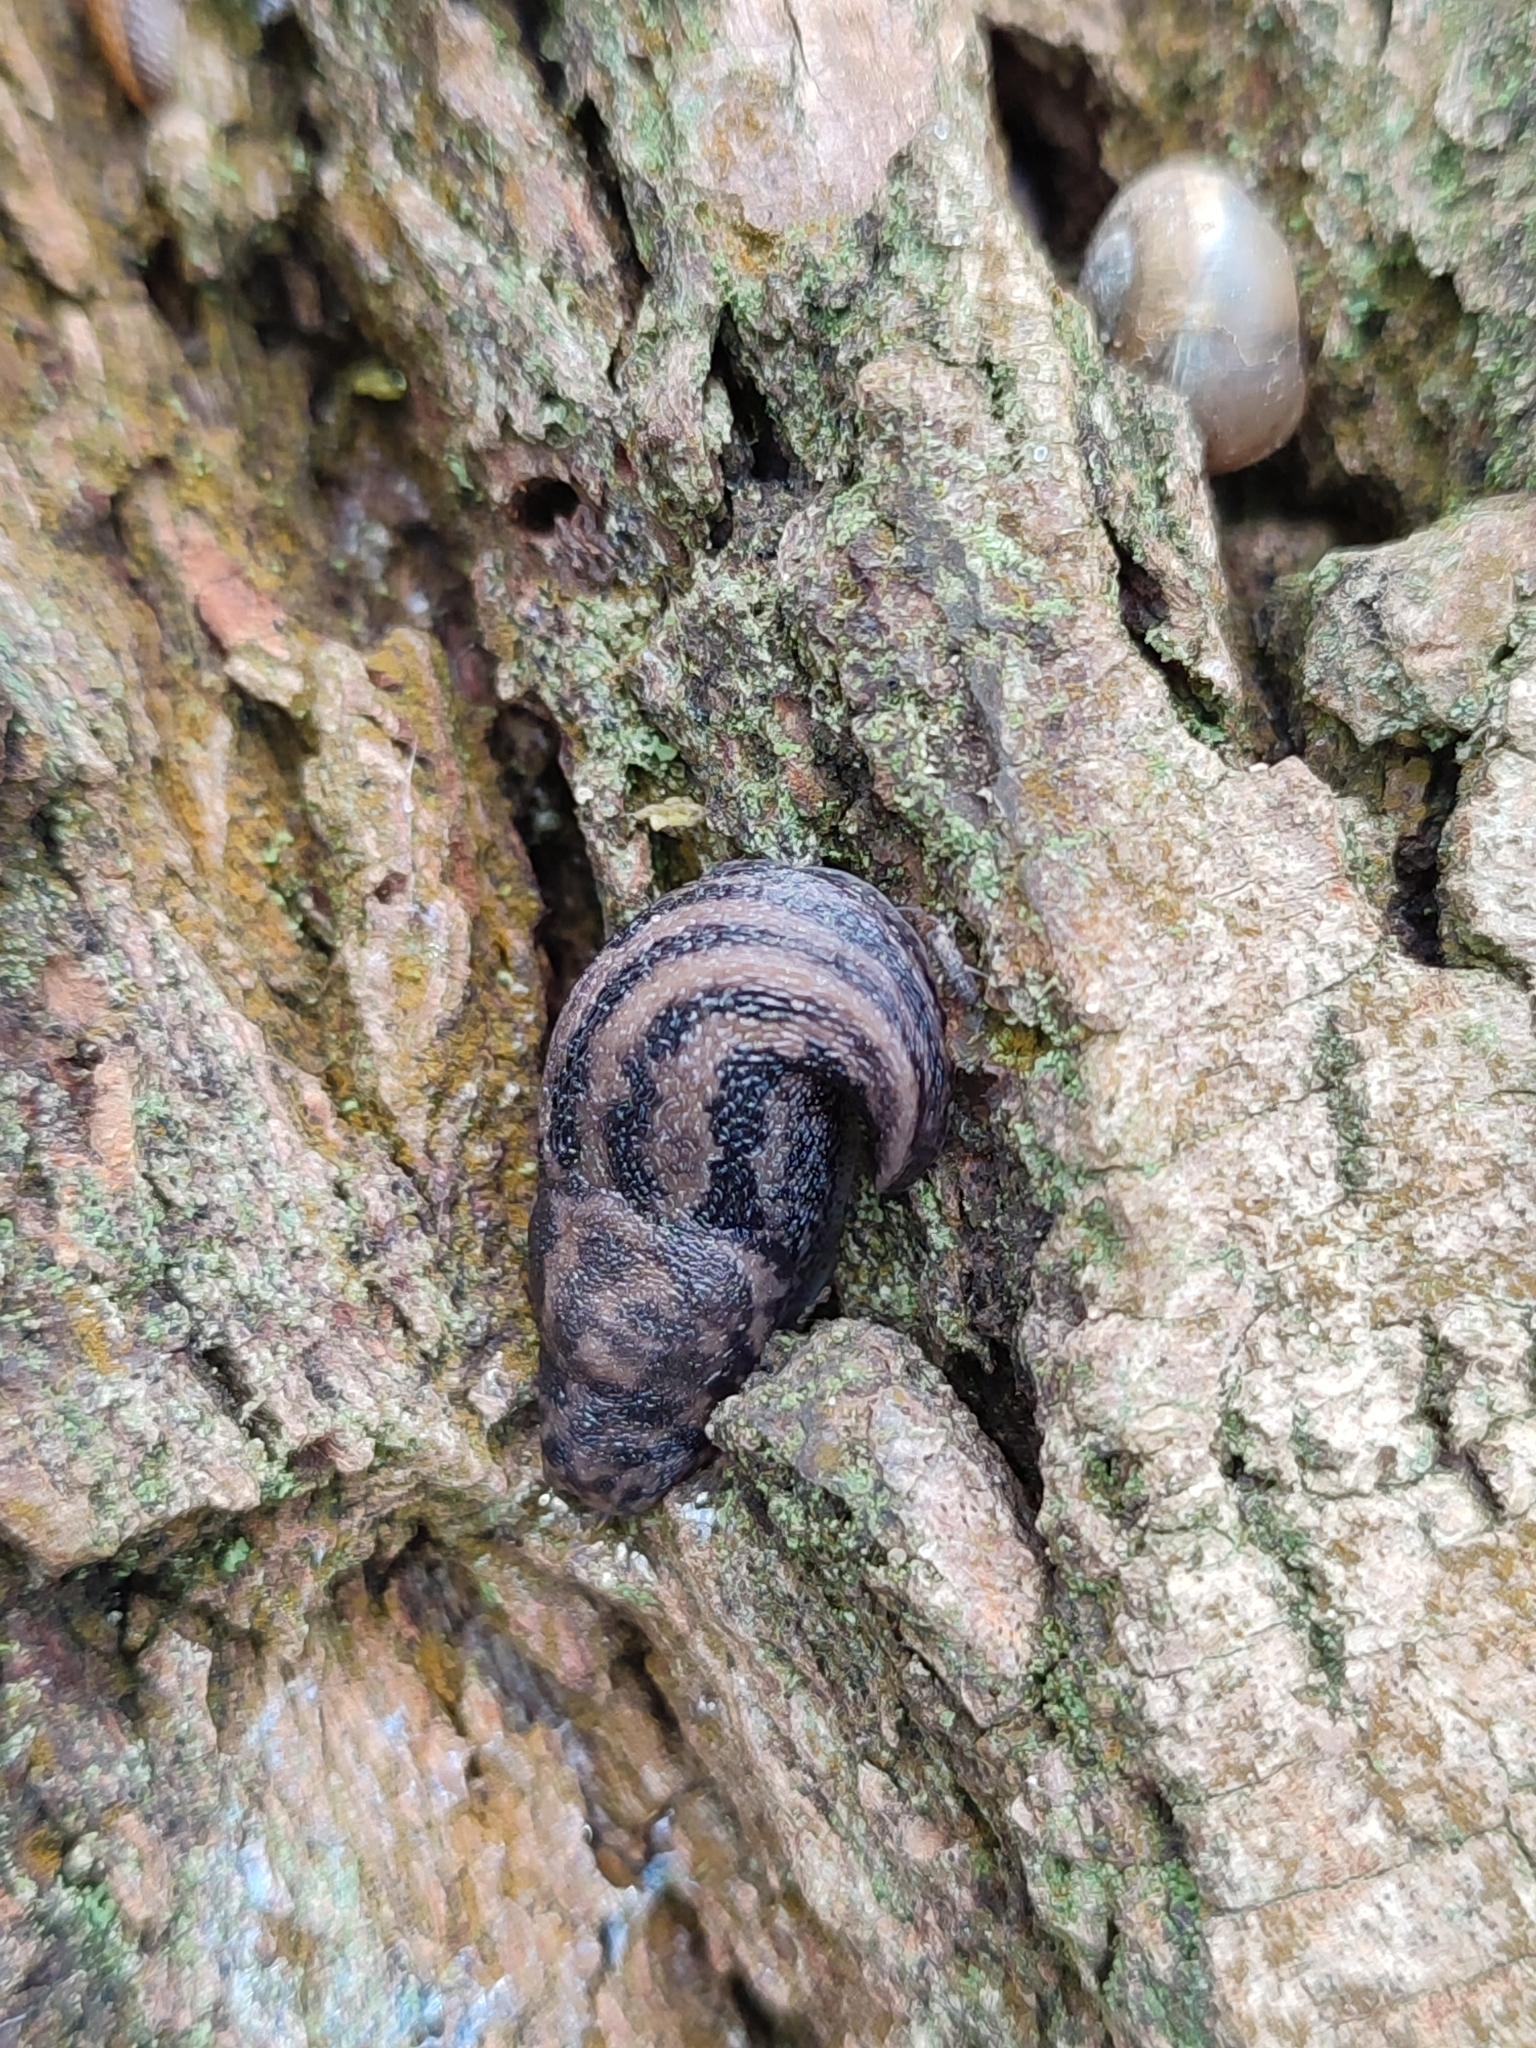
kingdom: Animalia
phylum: Mollusca
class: Gastropoda
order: Stylommatophora
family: Limacidae
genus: Limax
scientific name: Limax maximus
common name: Great grey slug
